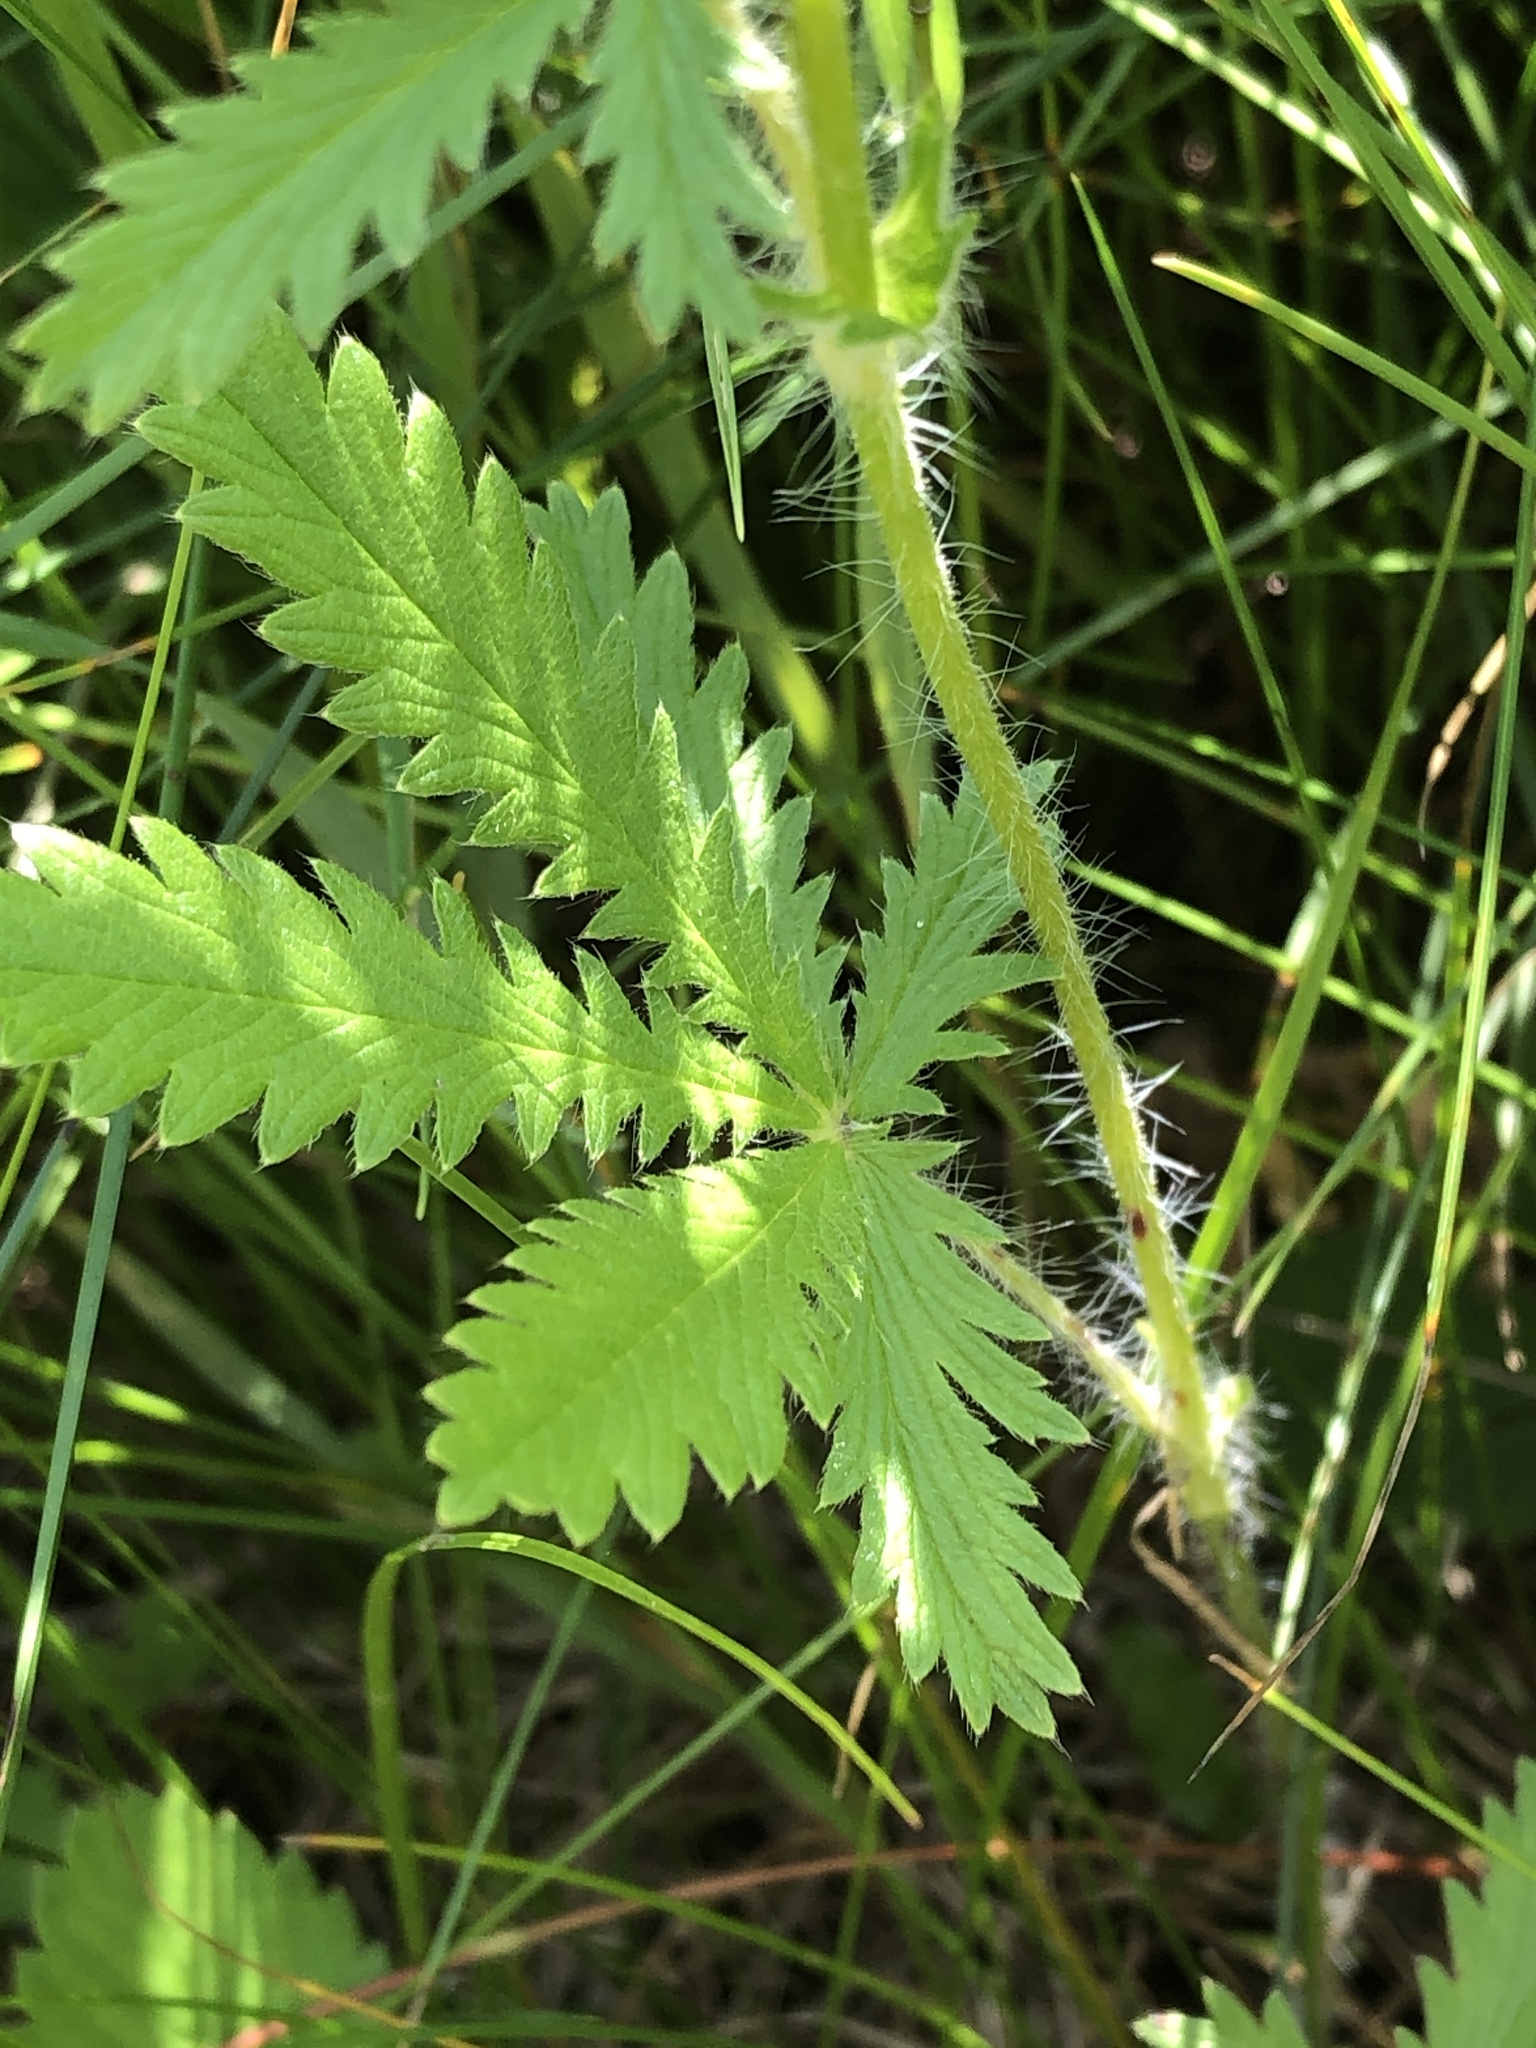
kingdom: Plantae
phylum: Tracheophyta
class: Magnoliopsida
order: Rosales
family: Rosaceae
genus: Potentilla
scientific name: Potentilla recta
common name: Sulphur cinquefoil
